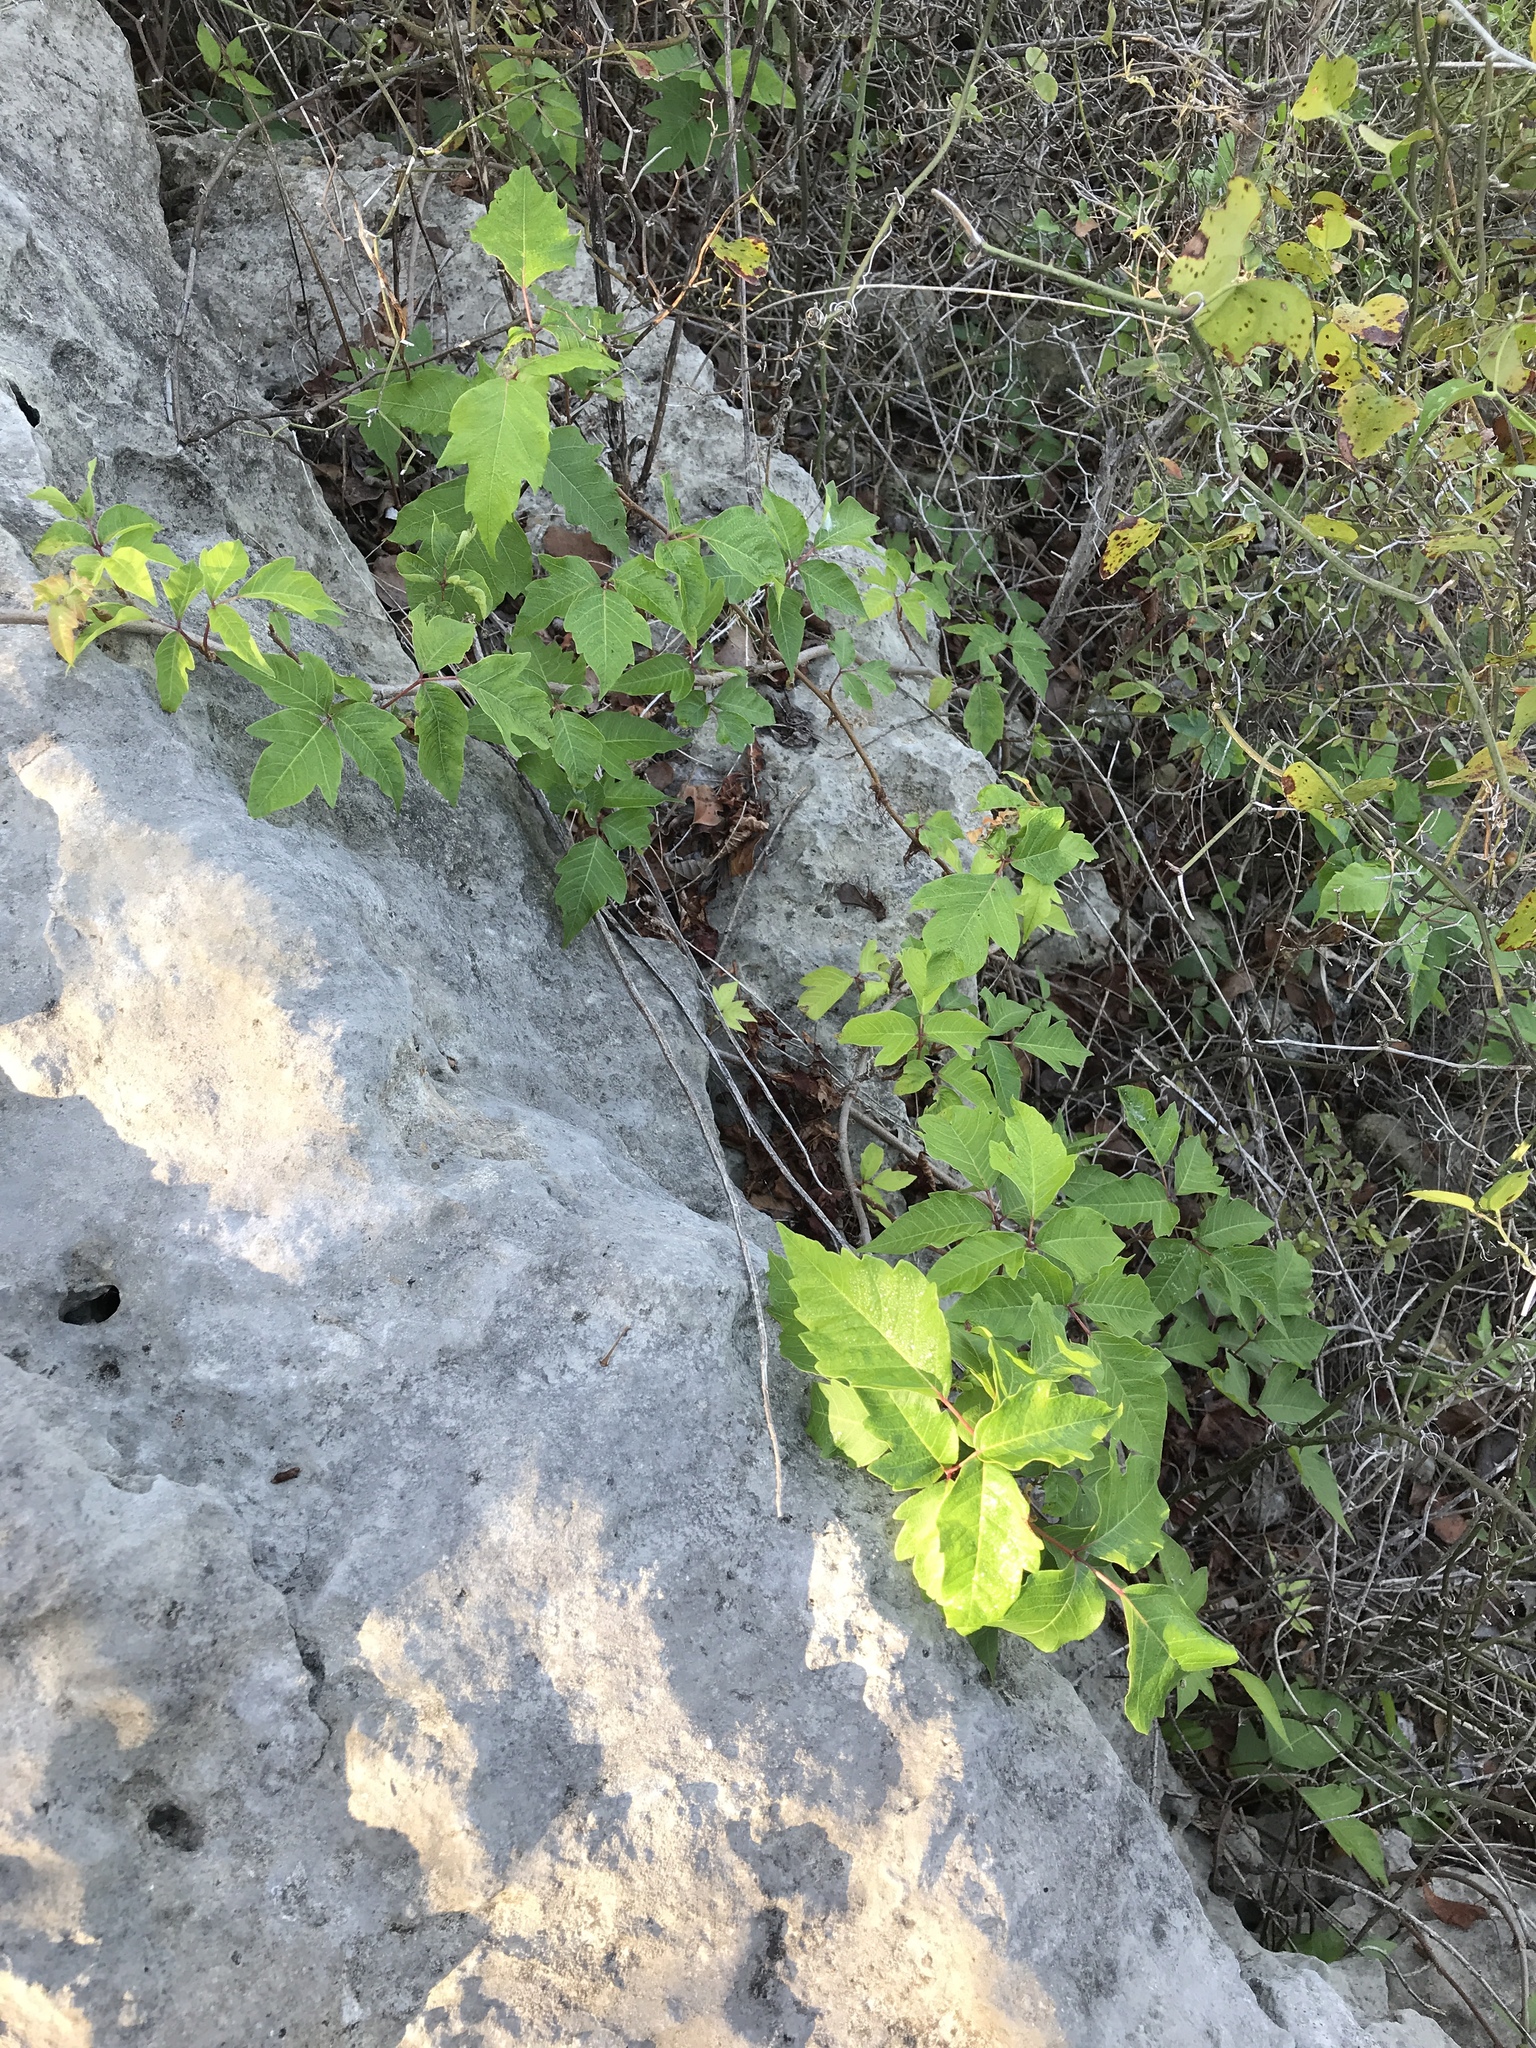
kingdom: Plantae
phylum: Tracheophyta
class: Magnoliopsida
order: Sapindales
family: Anacardiaceae
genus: Toxicodendron
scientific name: Toxicodendron radicans
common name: Poison ivy
